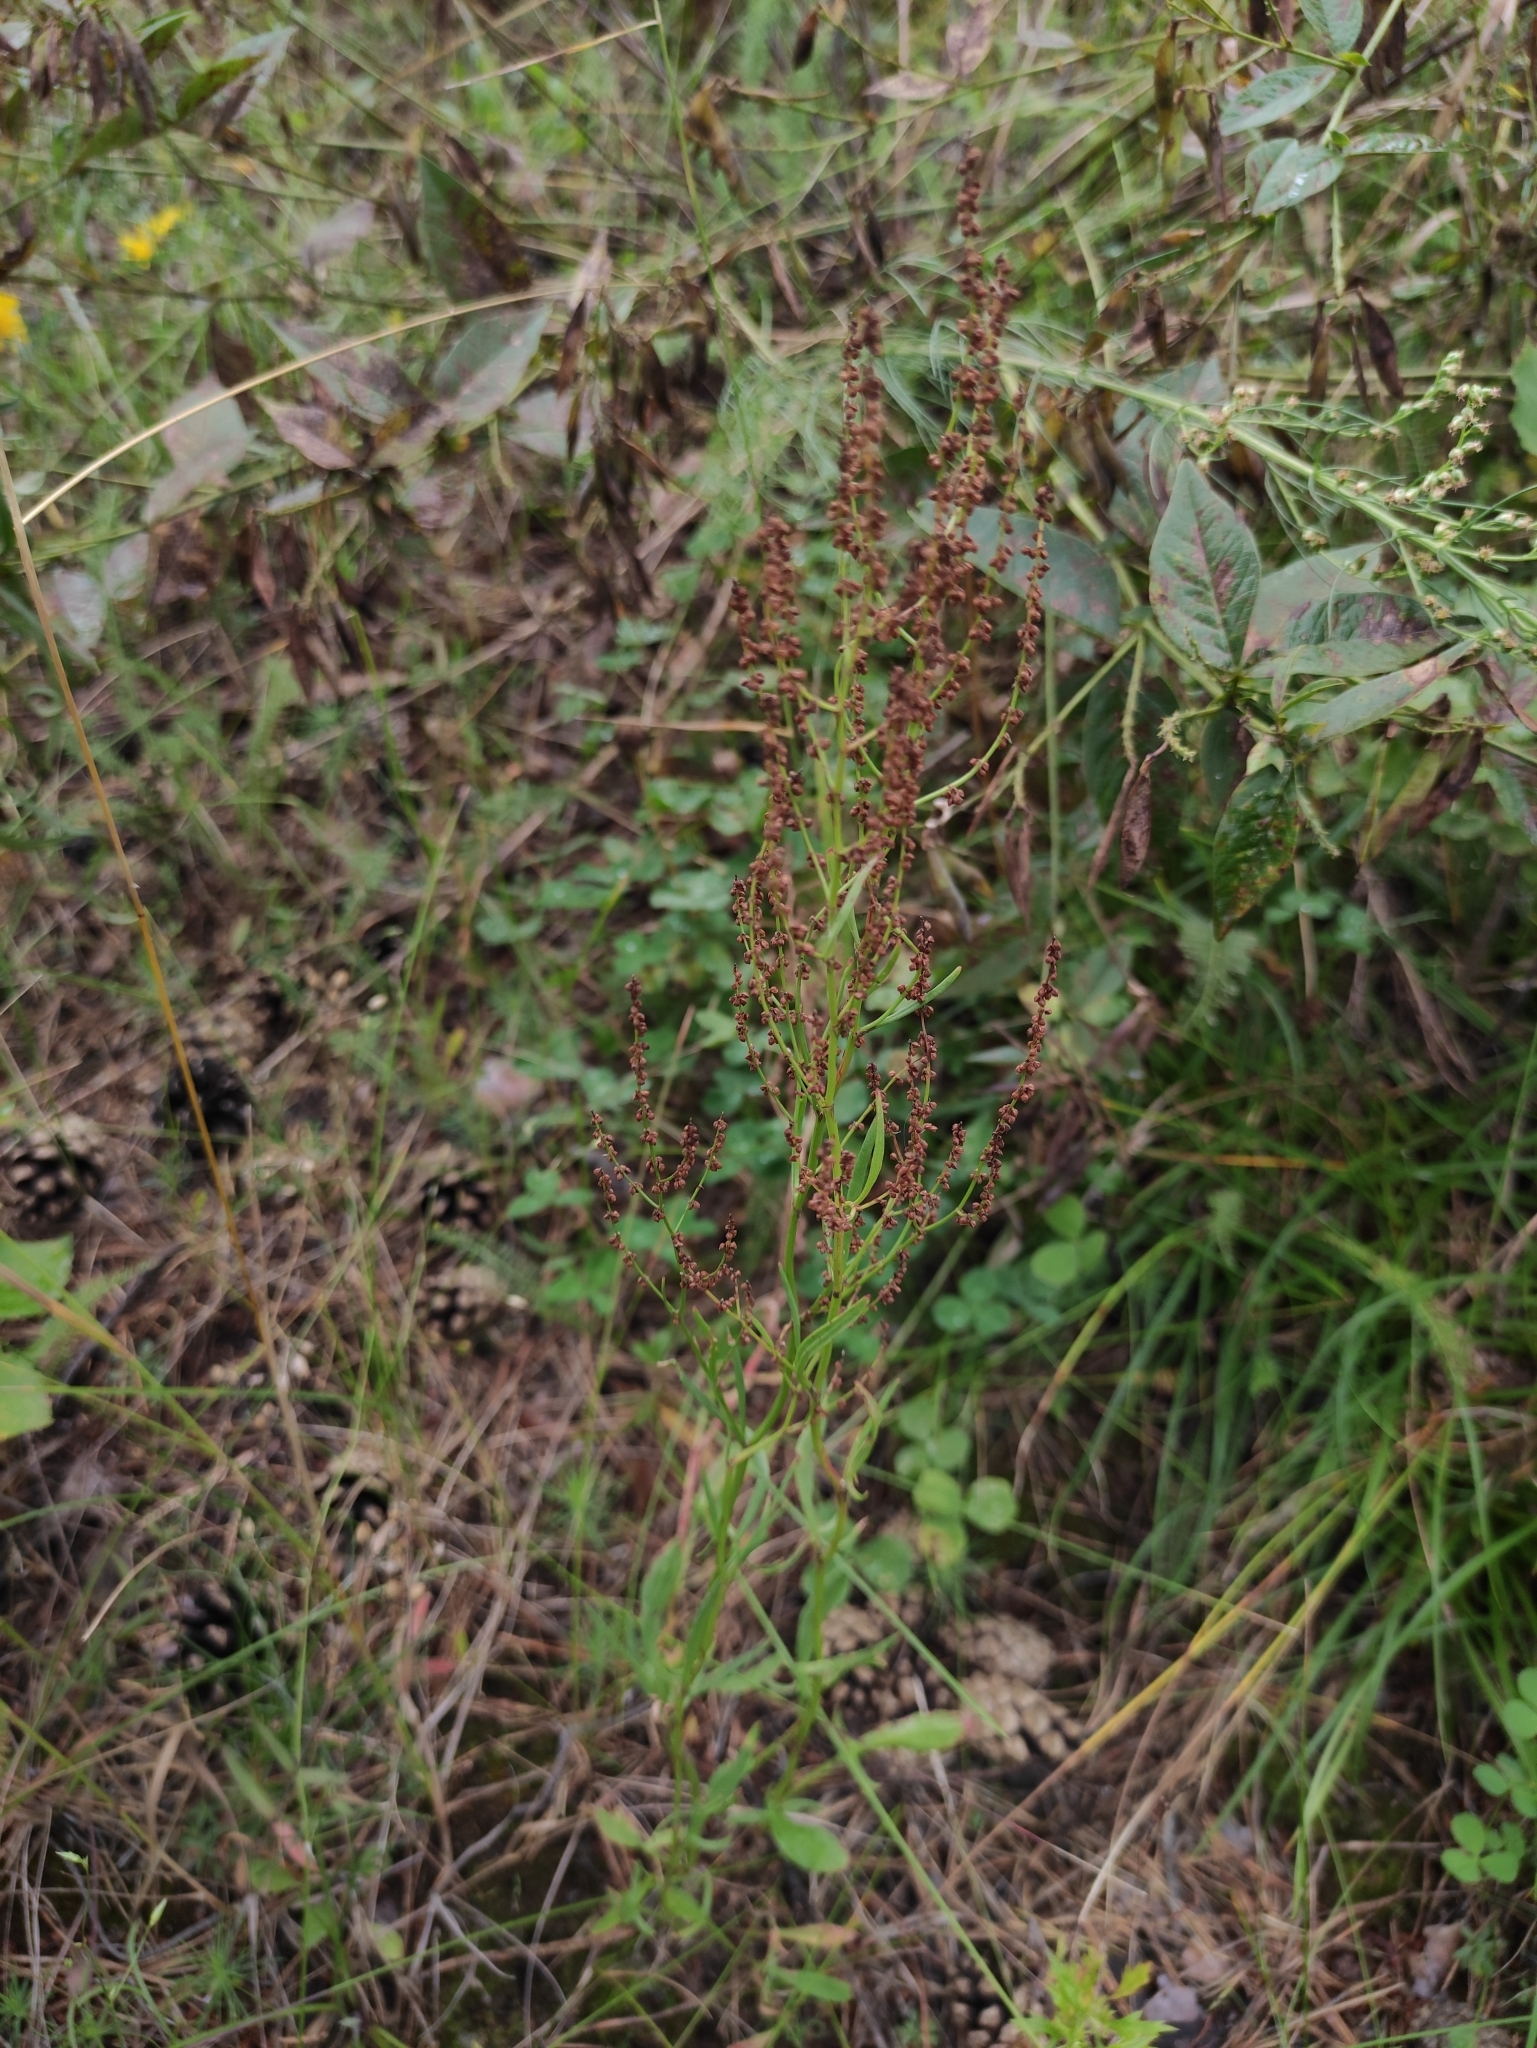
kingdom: Plantae
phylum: Tracheophyta
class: Magnoliopsida
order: Caryophyllales
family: Polygonaceae
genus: Rumex
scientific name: Rumex acetosella
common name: Common sheep sorrel
